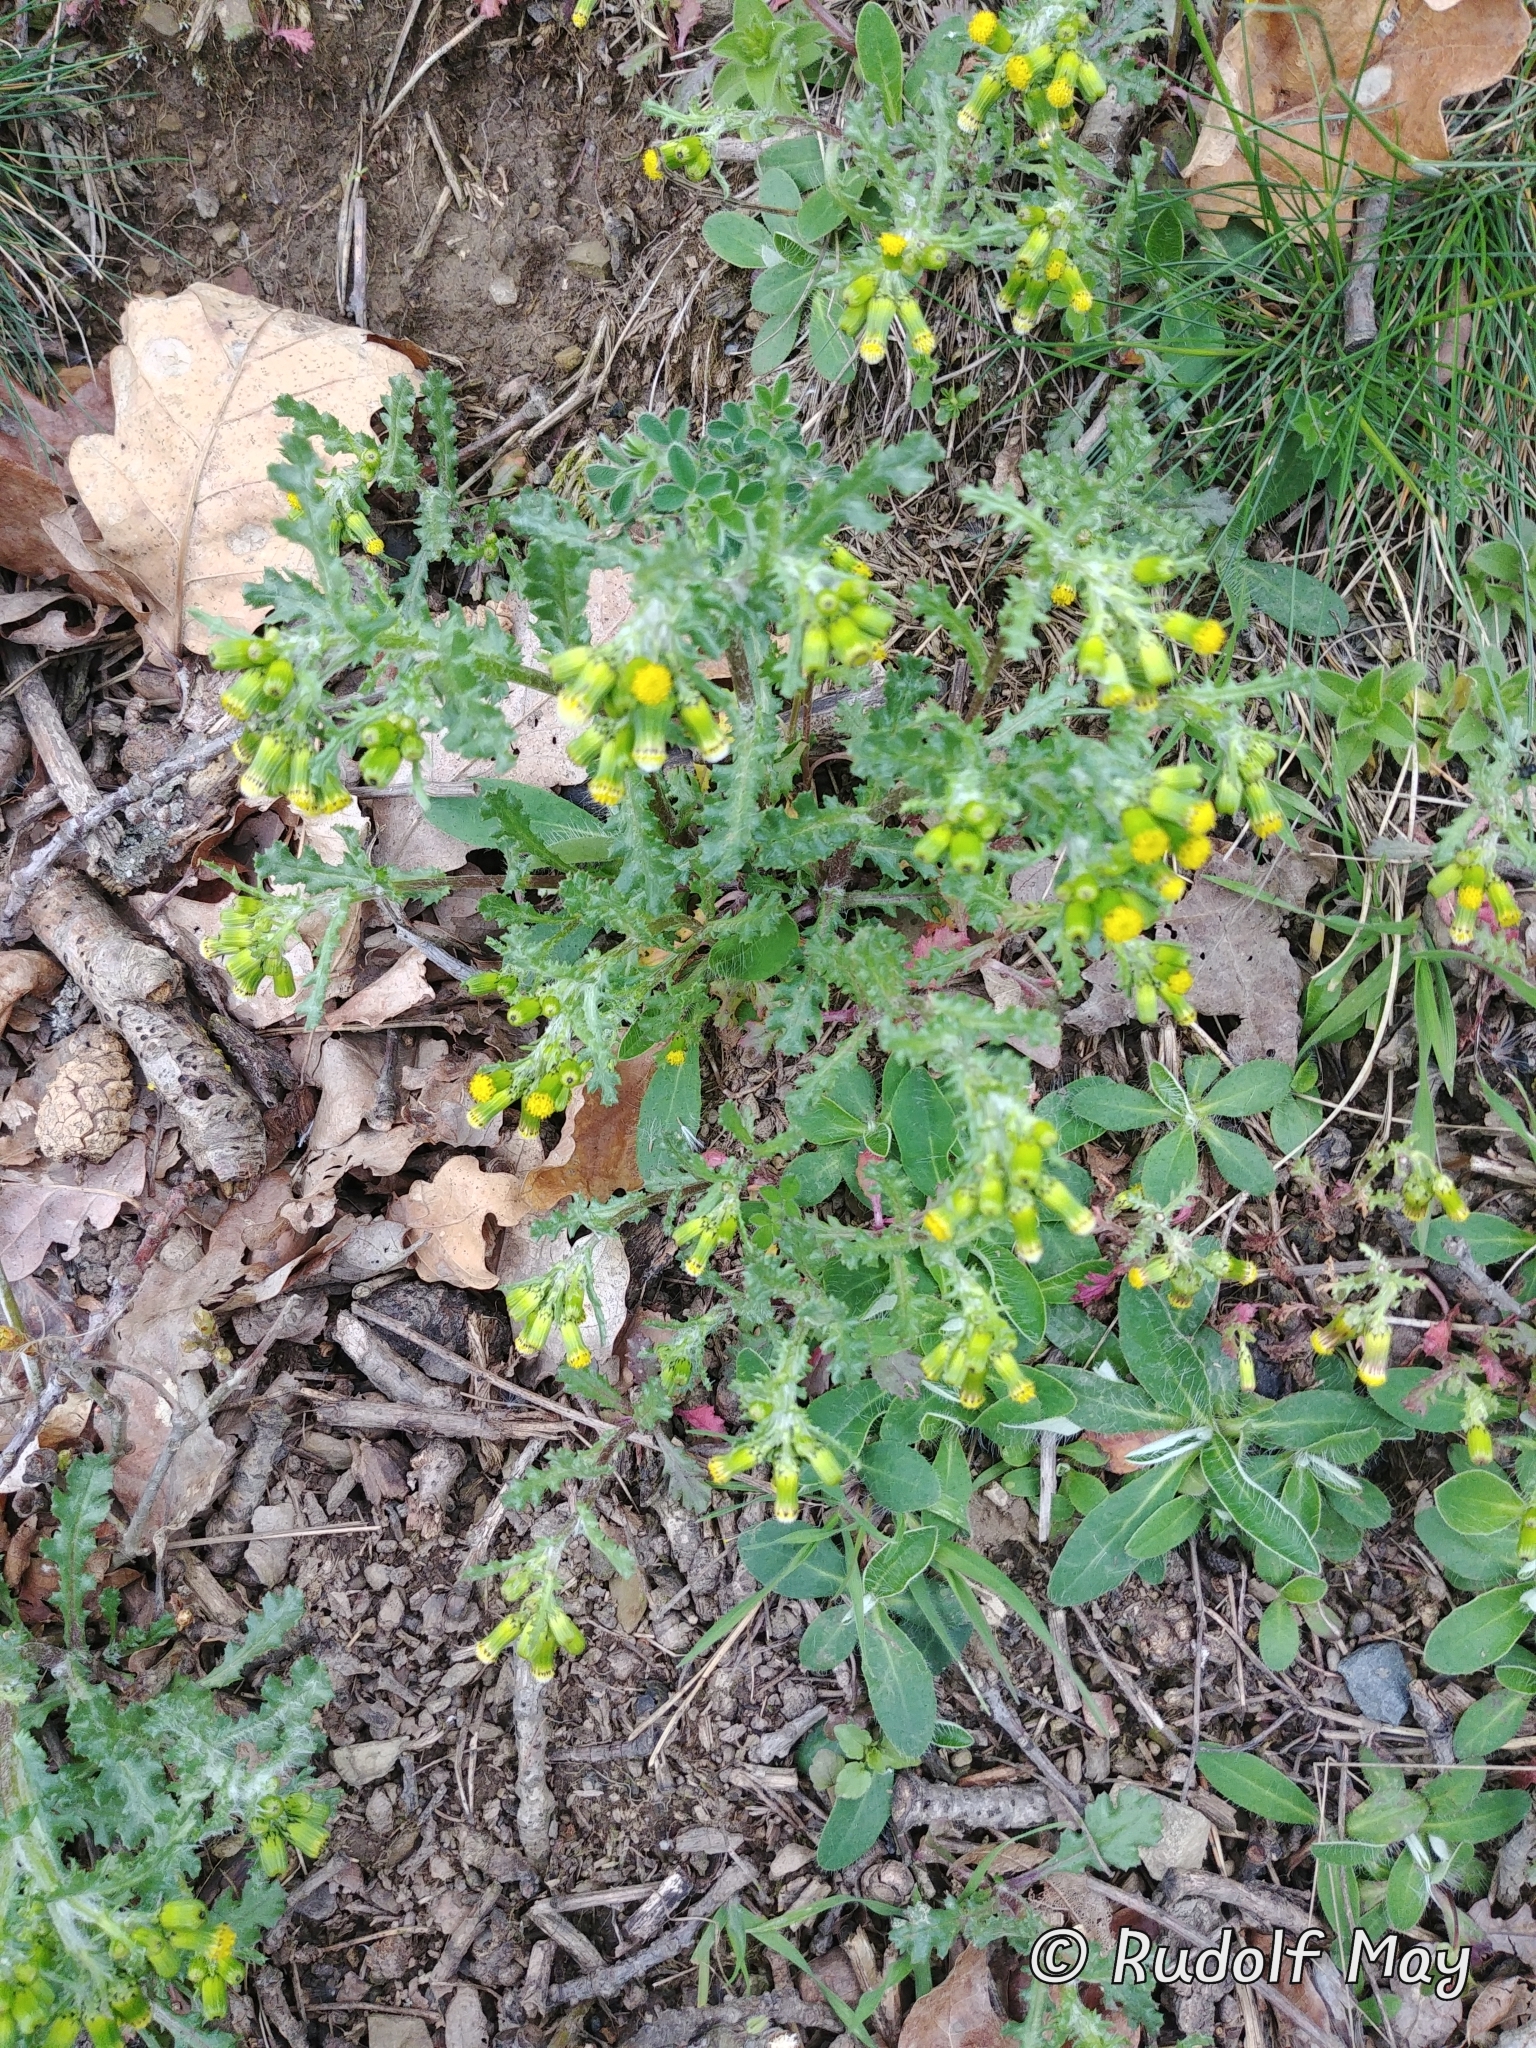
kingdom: Plantae
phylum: Tracheophyta
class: Magnoliopsida
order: Asterales
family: Asteraceae
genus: Senecio
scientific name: Senecio vulgaris
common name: Old-man-in-the-spring
